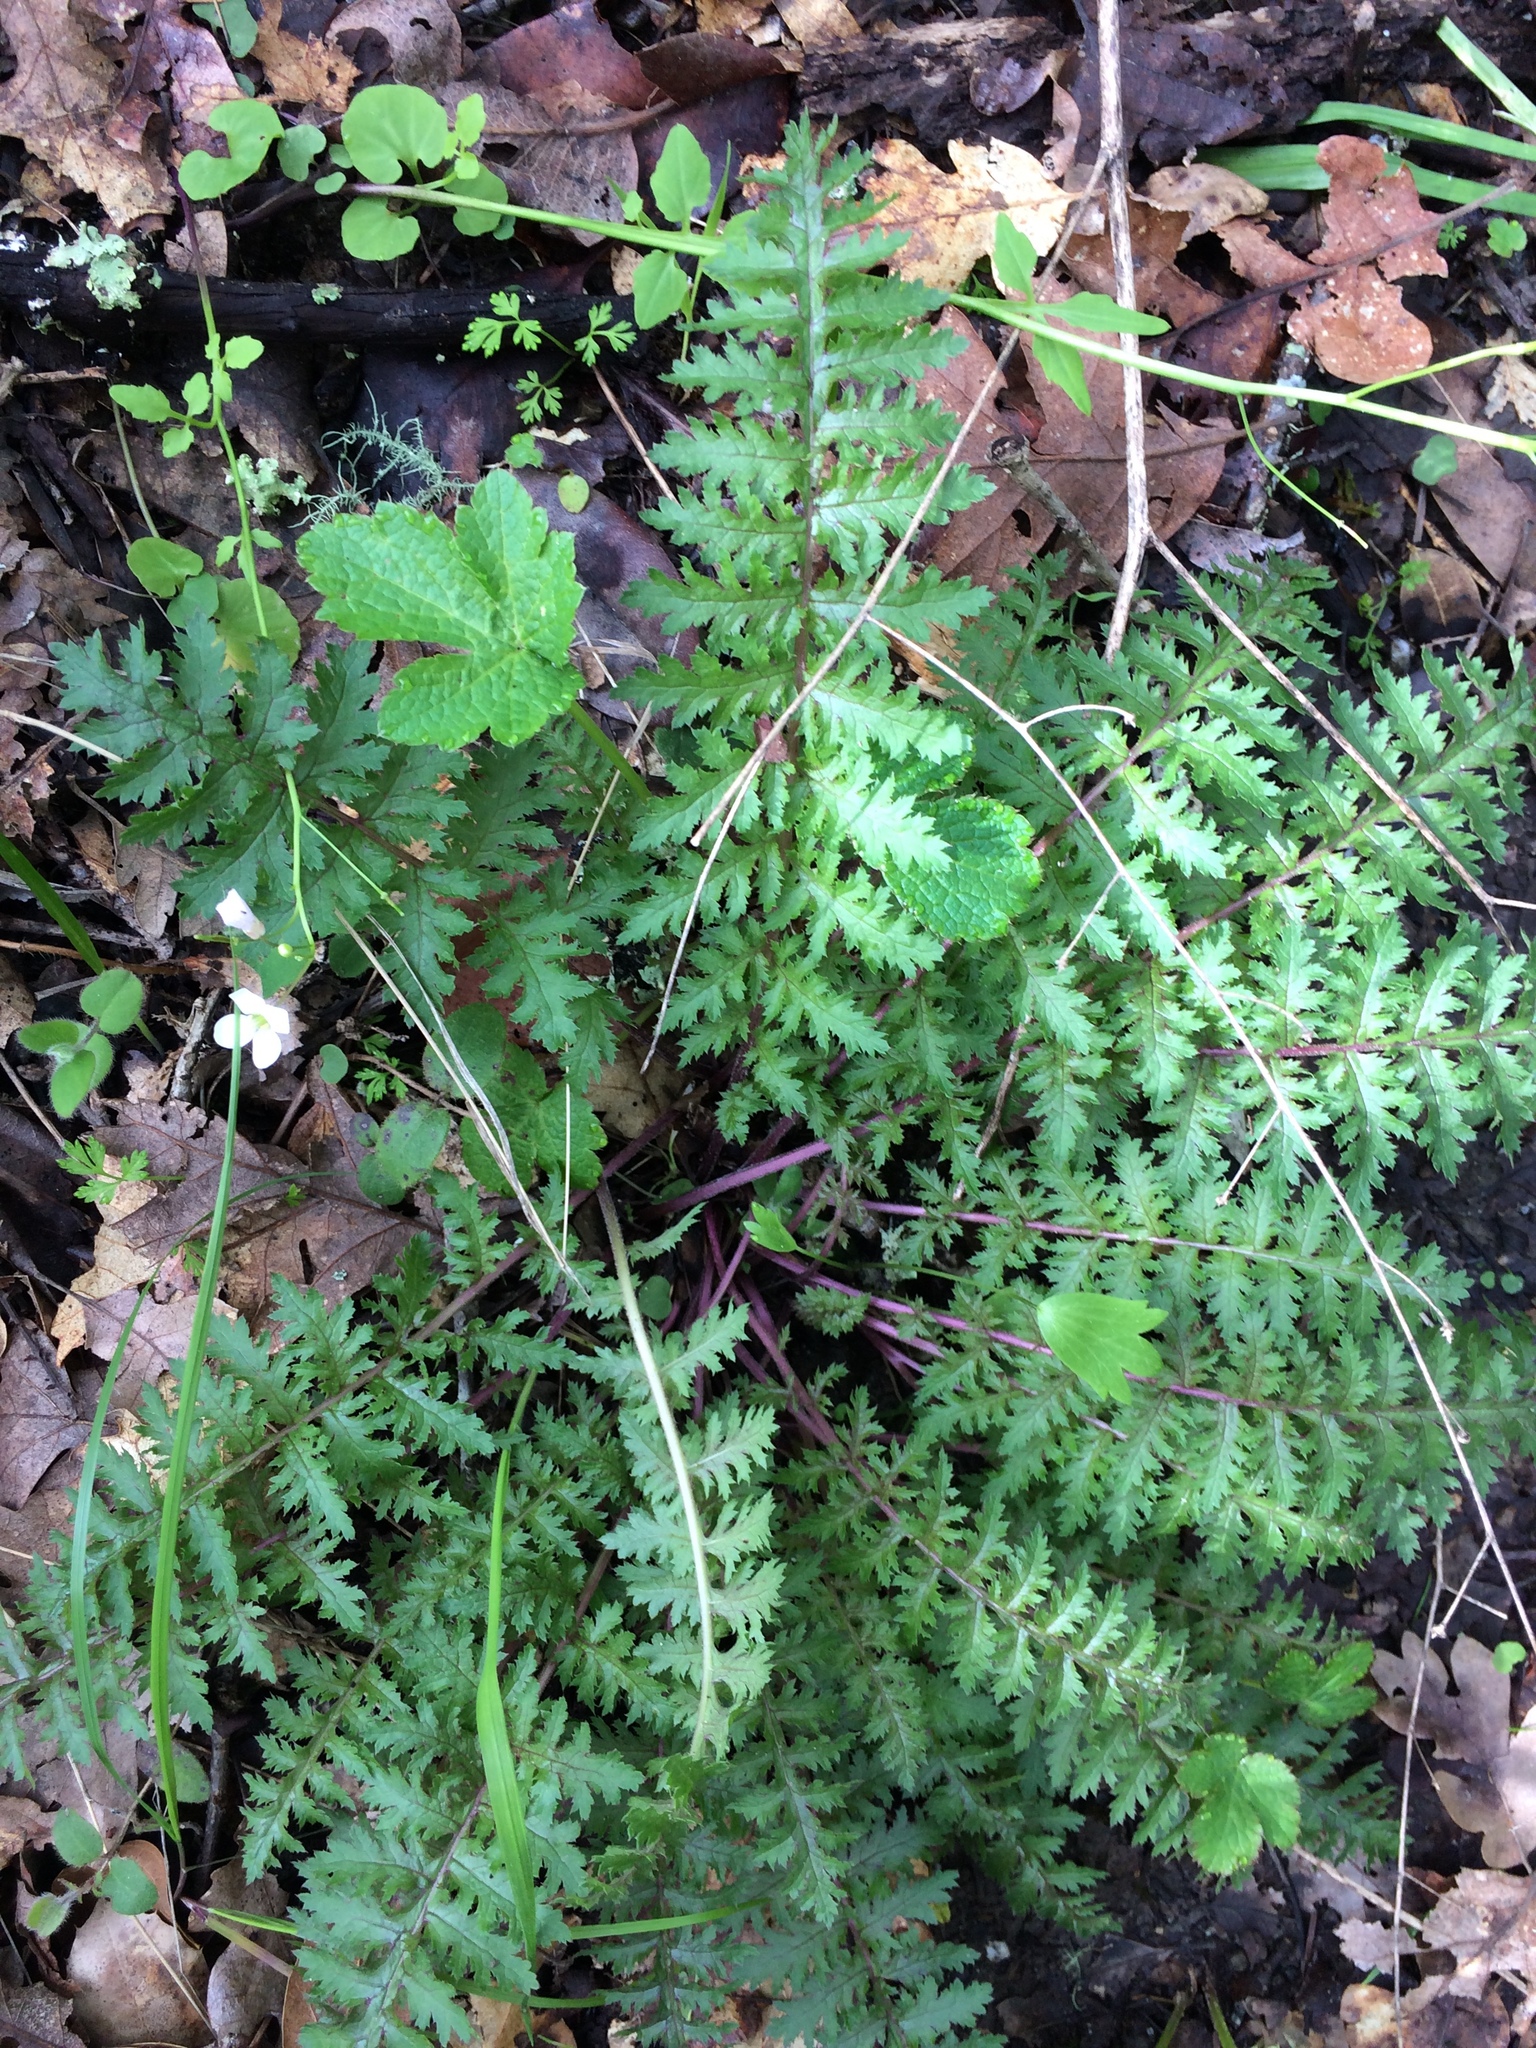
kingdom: Plantae
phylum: Tracheophyta
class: Magnoliopsida
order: Lamiales
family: Orobanchaceae
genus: Pedicularis
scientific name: Pedicularis densiflora
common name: Indian warrior
